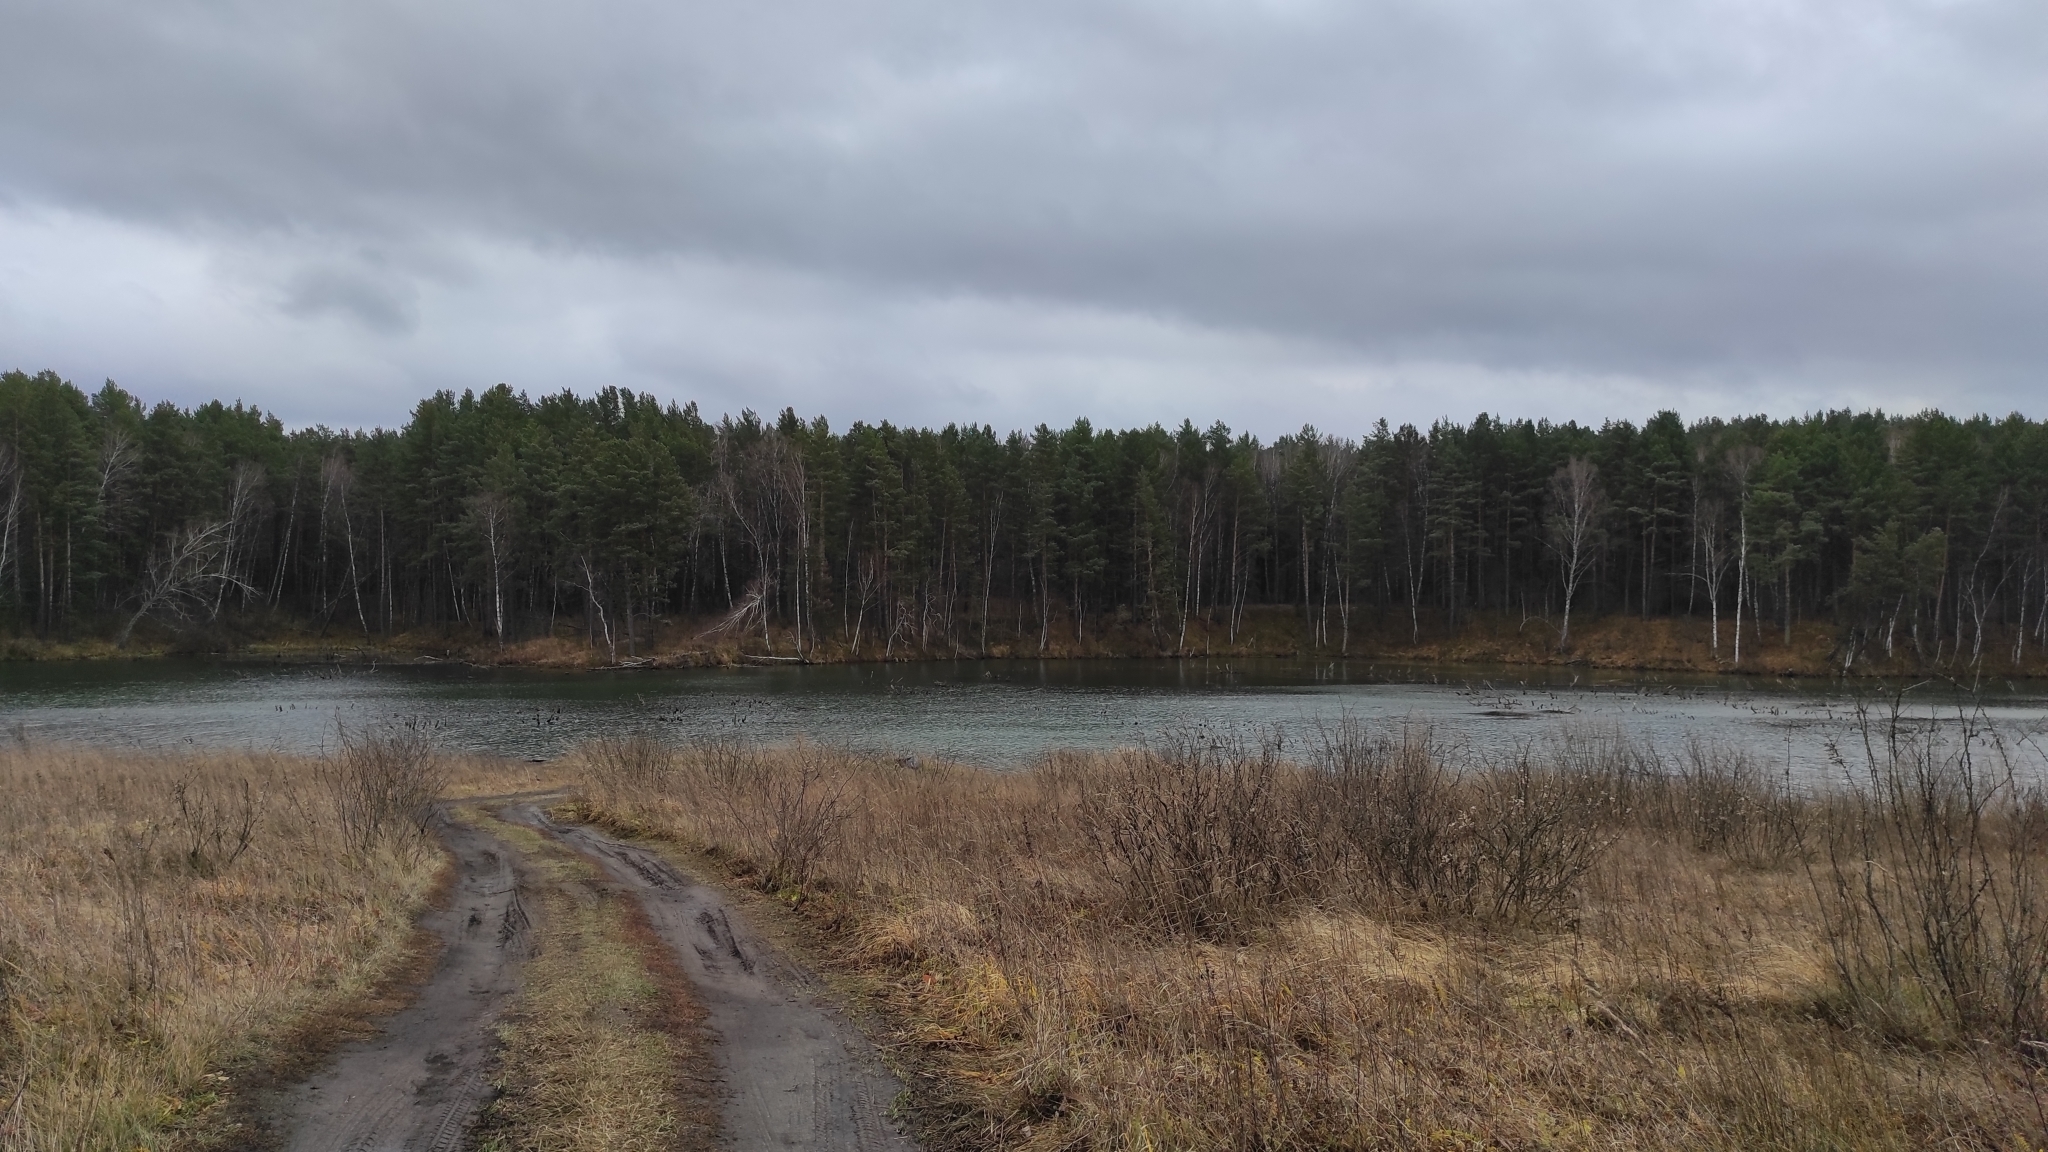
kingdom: Plantae
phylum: Tracheophyta
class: Pinopsida
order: Pinales
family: Pinaceae
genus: Pinus
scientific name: Pinus sylvestris
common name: Scots pine
